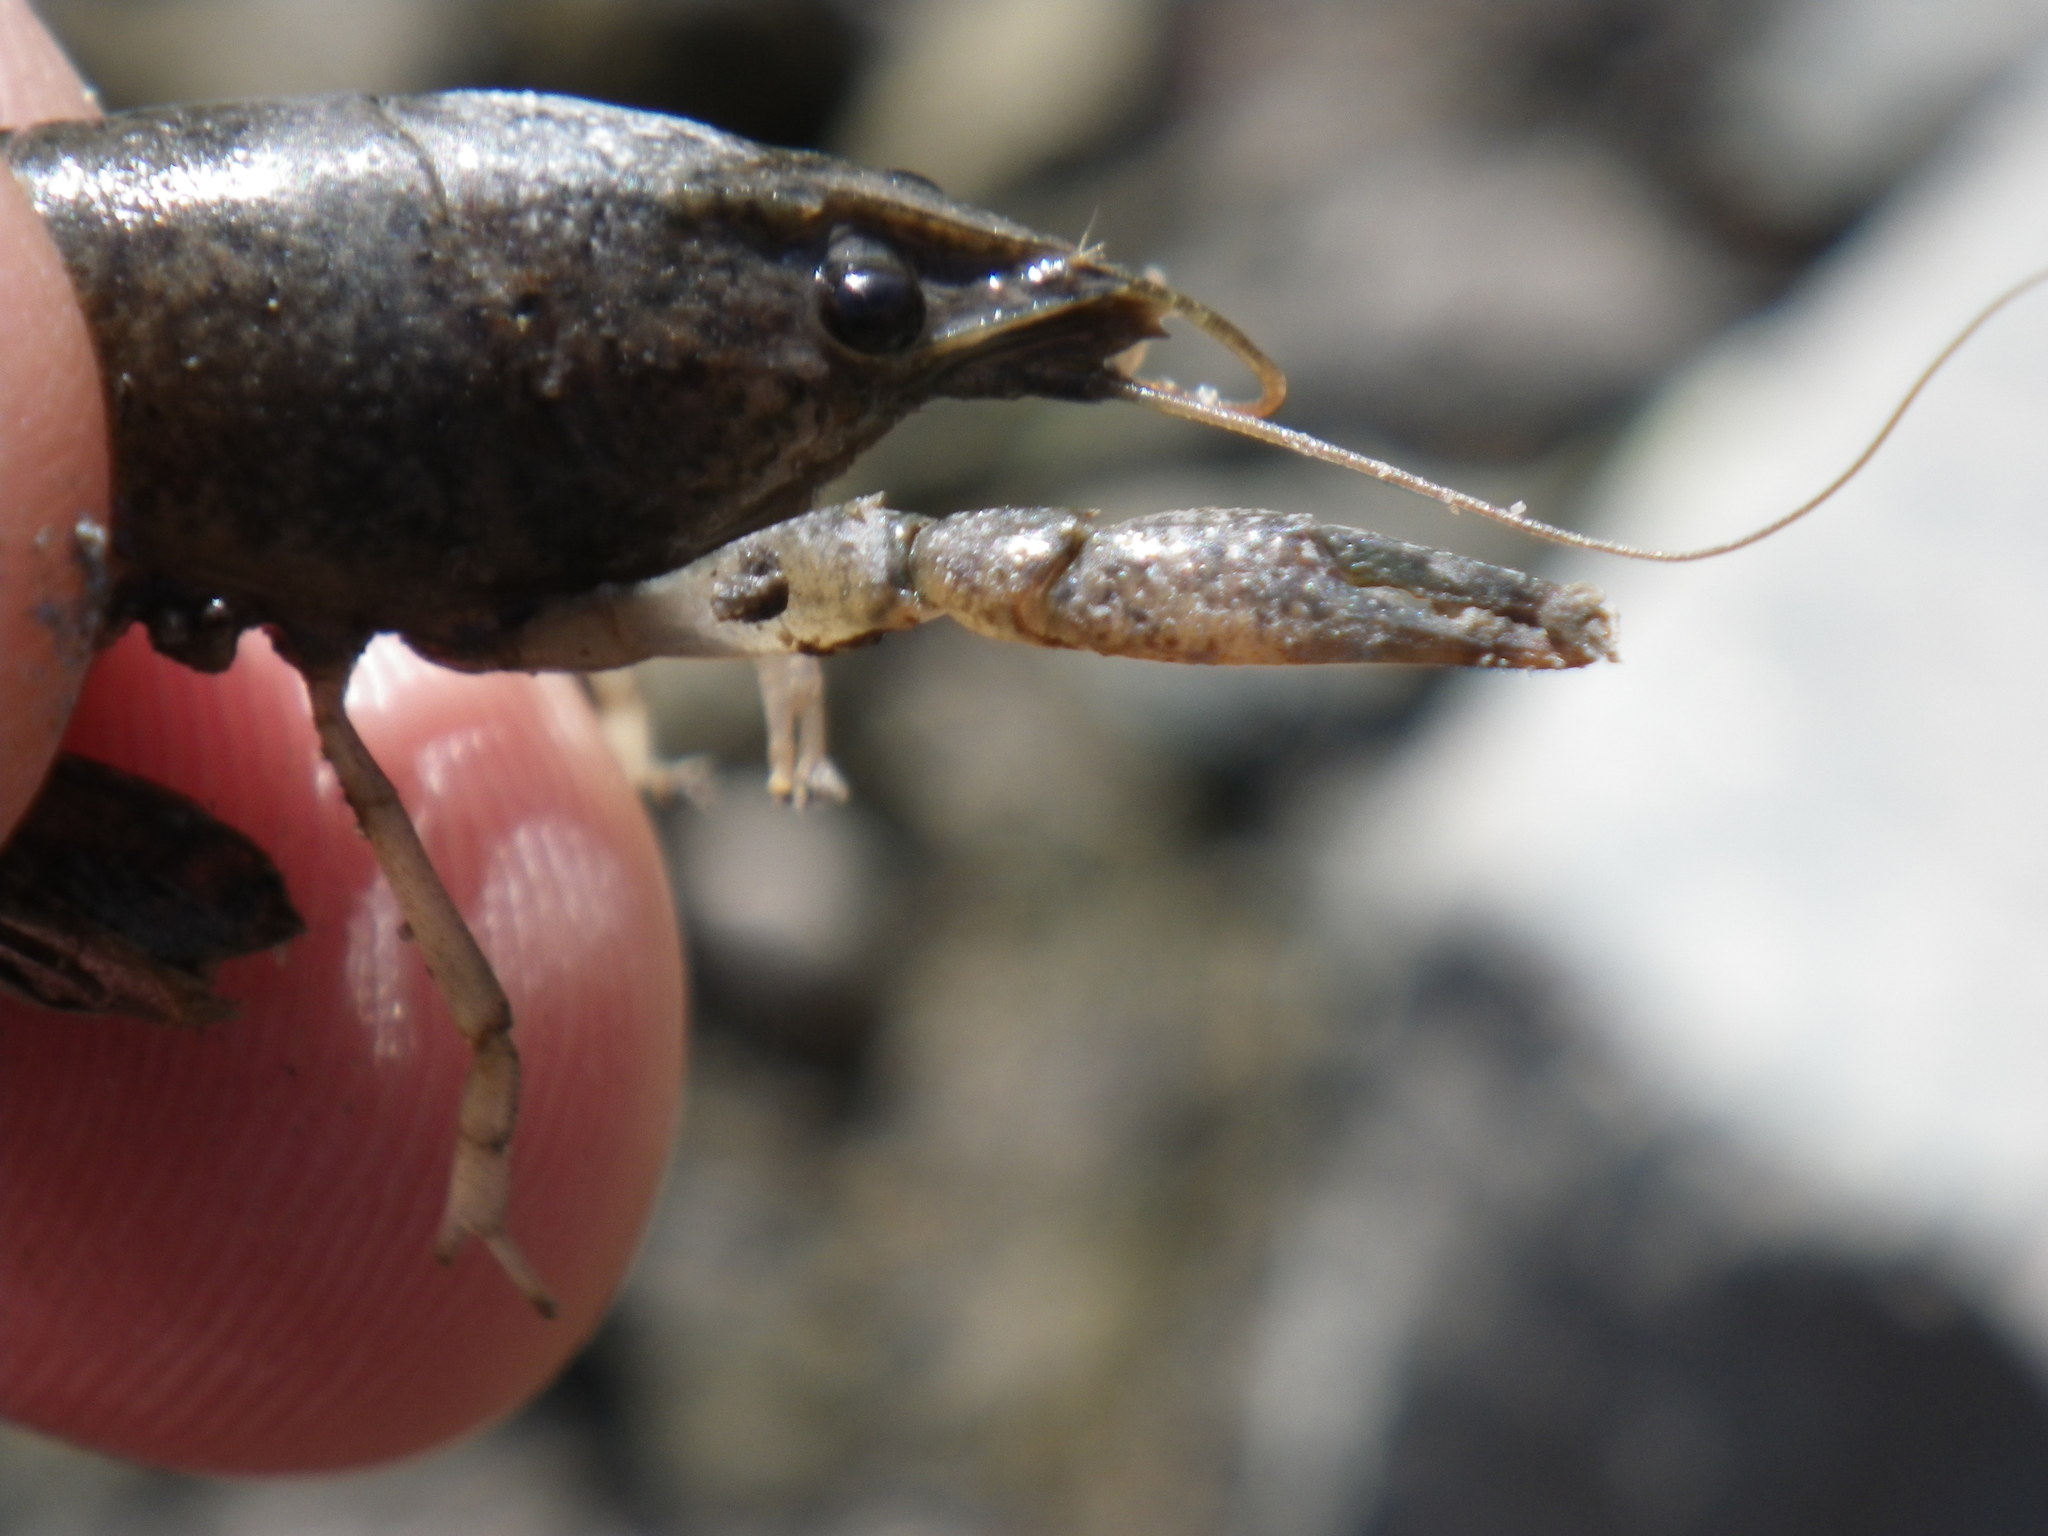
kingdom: Animalia
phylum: Arthropoda
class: Malacostraca
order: Decapoda
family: Astacidae
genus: Pacifastacus
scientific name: Pacifastacus leniusculus
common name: Signal crayfish
